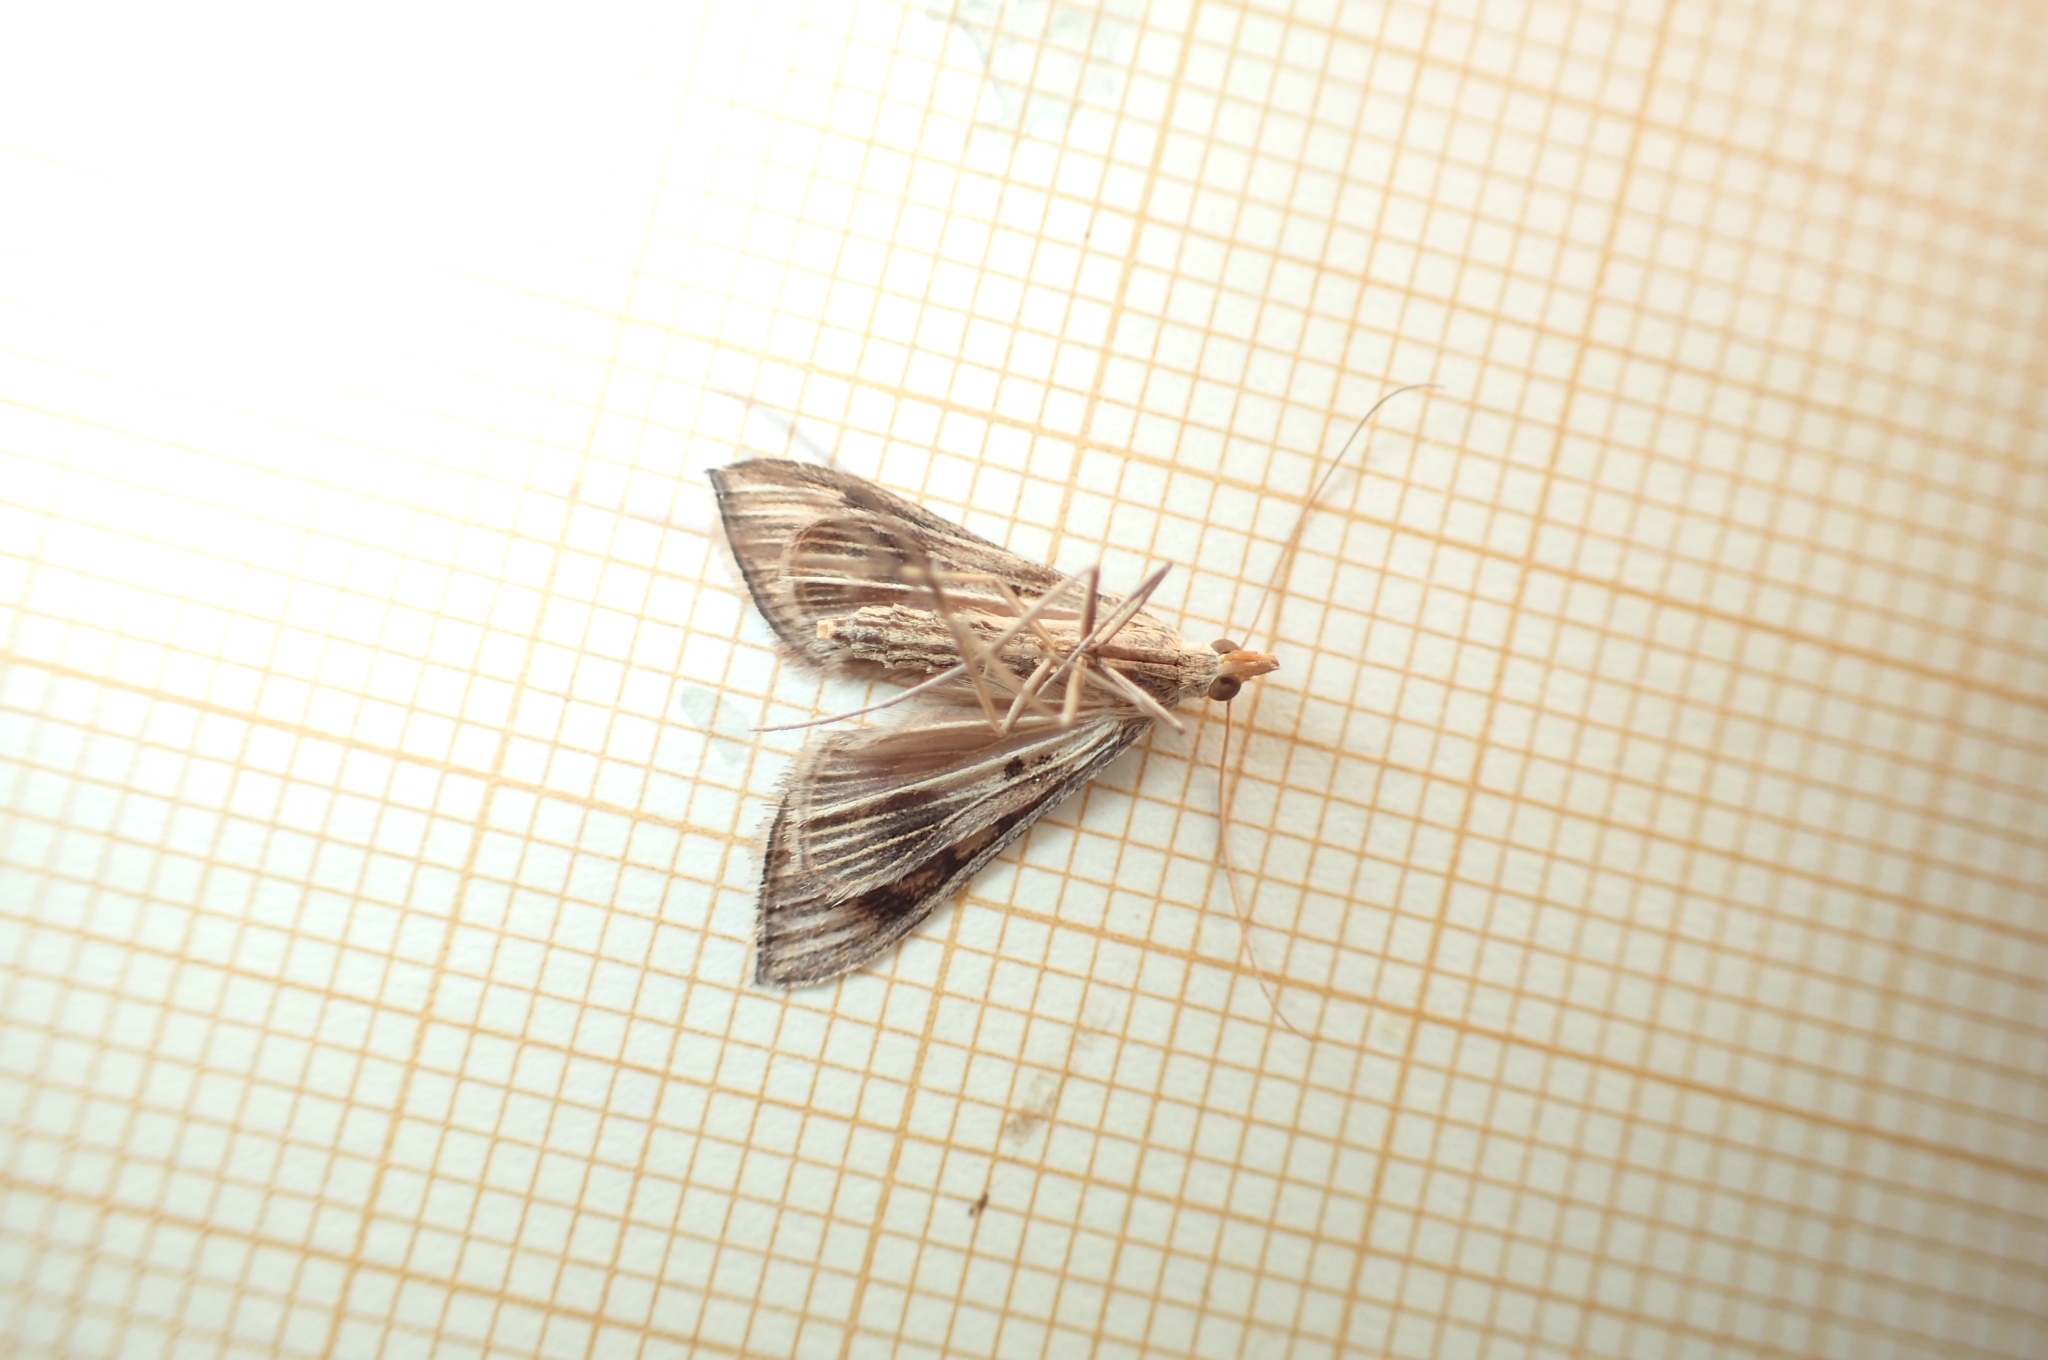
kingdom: Animalia
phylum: Arthropoda
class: Insecta
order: Lepidoptera
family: Crambidae
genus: Antigastra
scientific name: Antigastra catalaunalis
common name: Spanish dot
